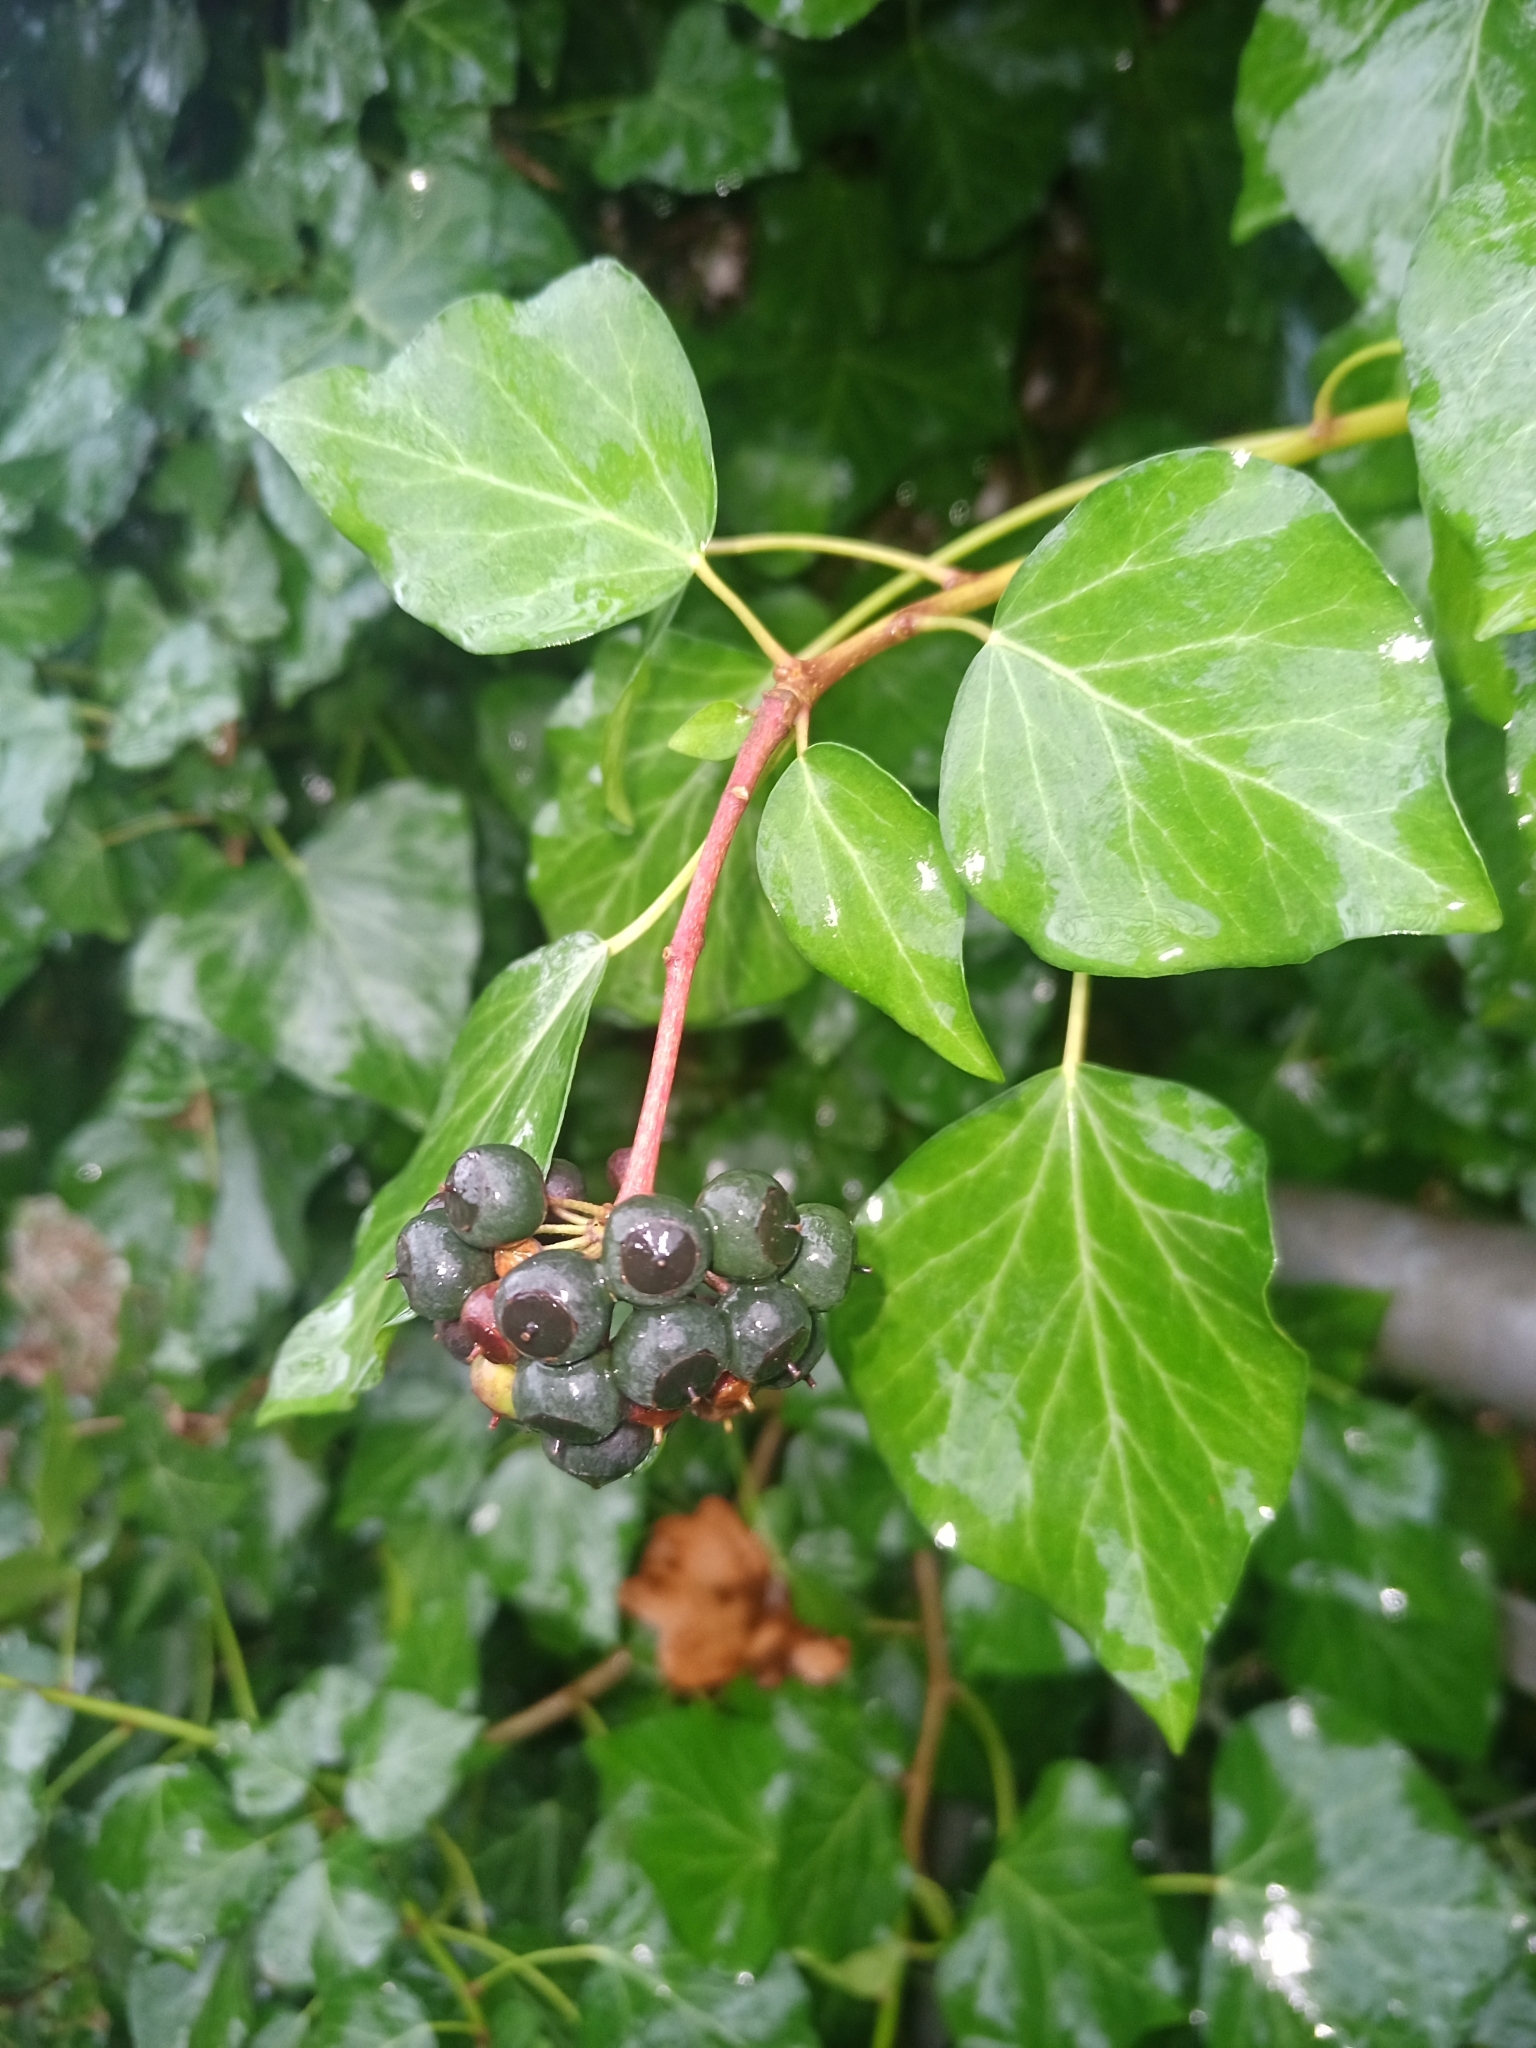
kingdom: Plantae
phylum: Tracheophyta
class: Magnoliopsida
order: Apiales
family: Araliaceae
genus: Hedera
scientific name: Hedera hibernica
